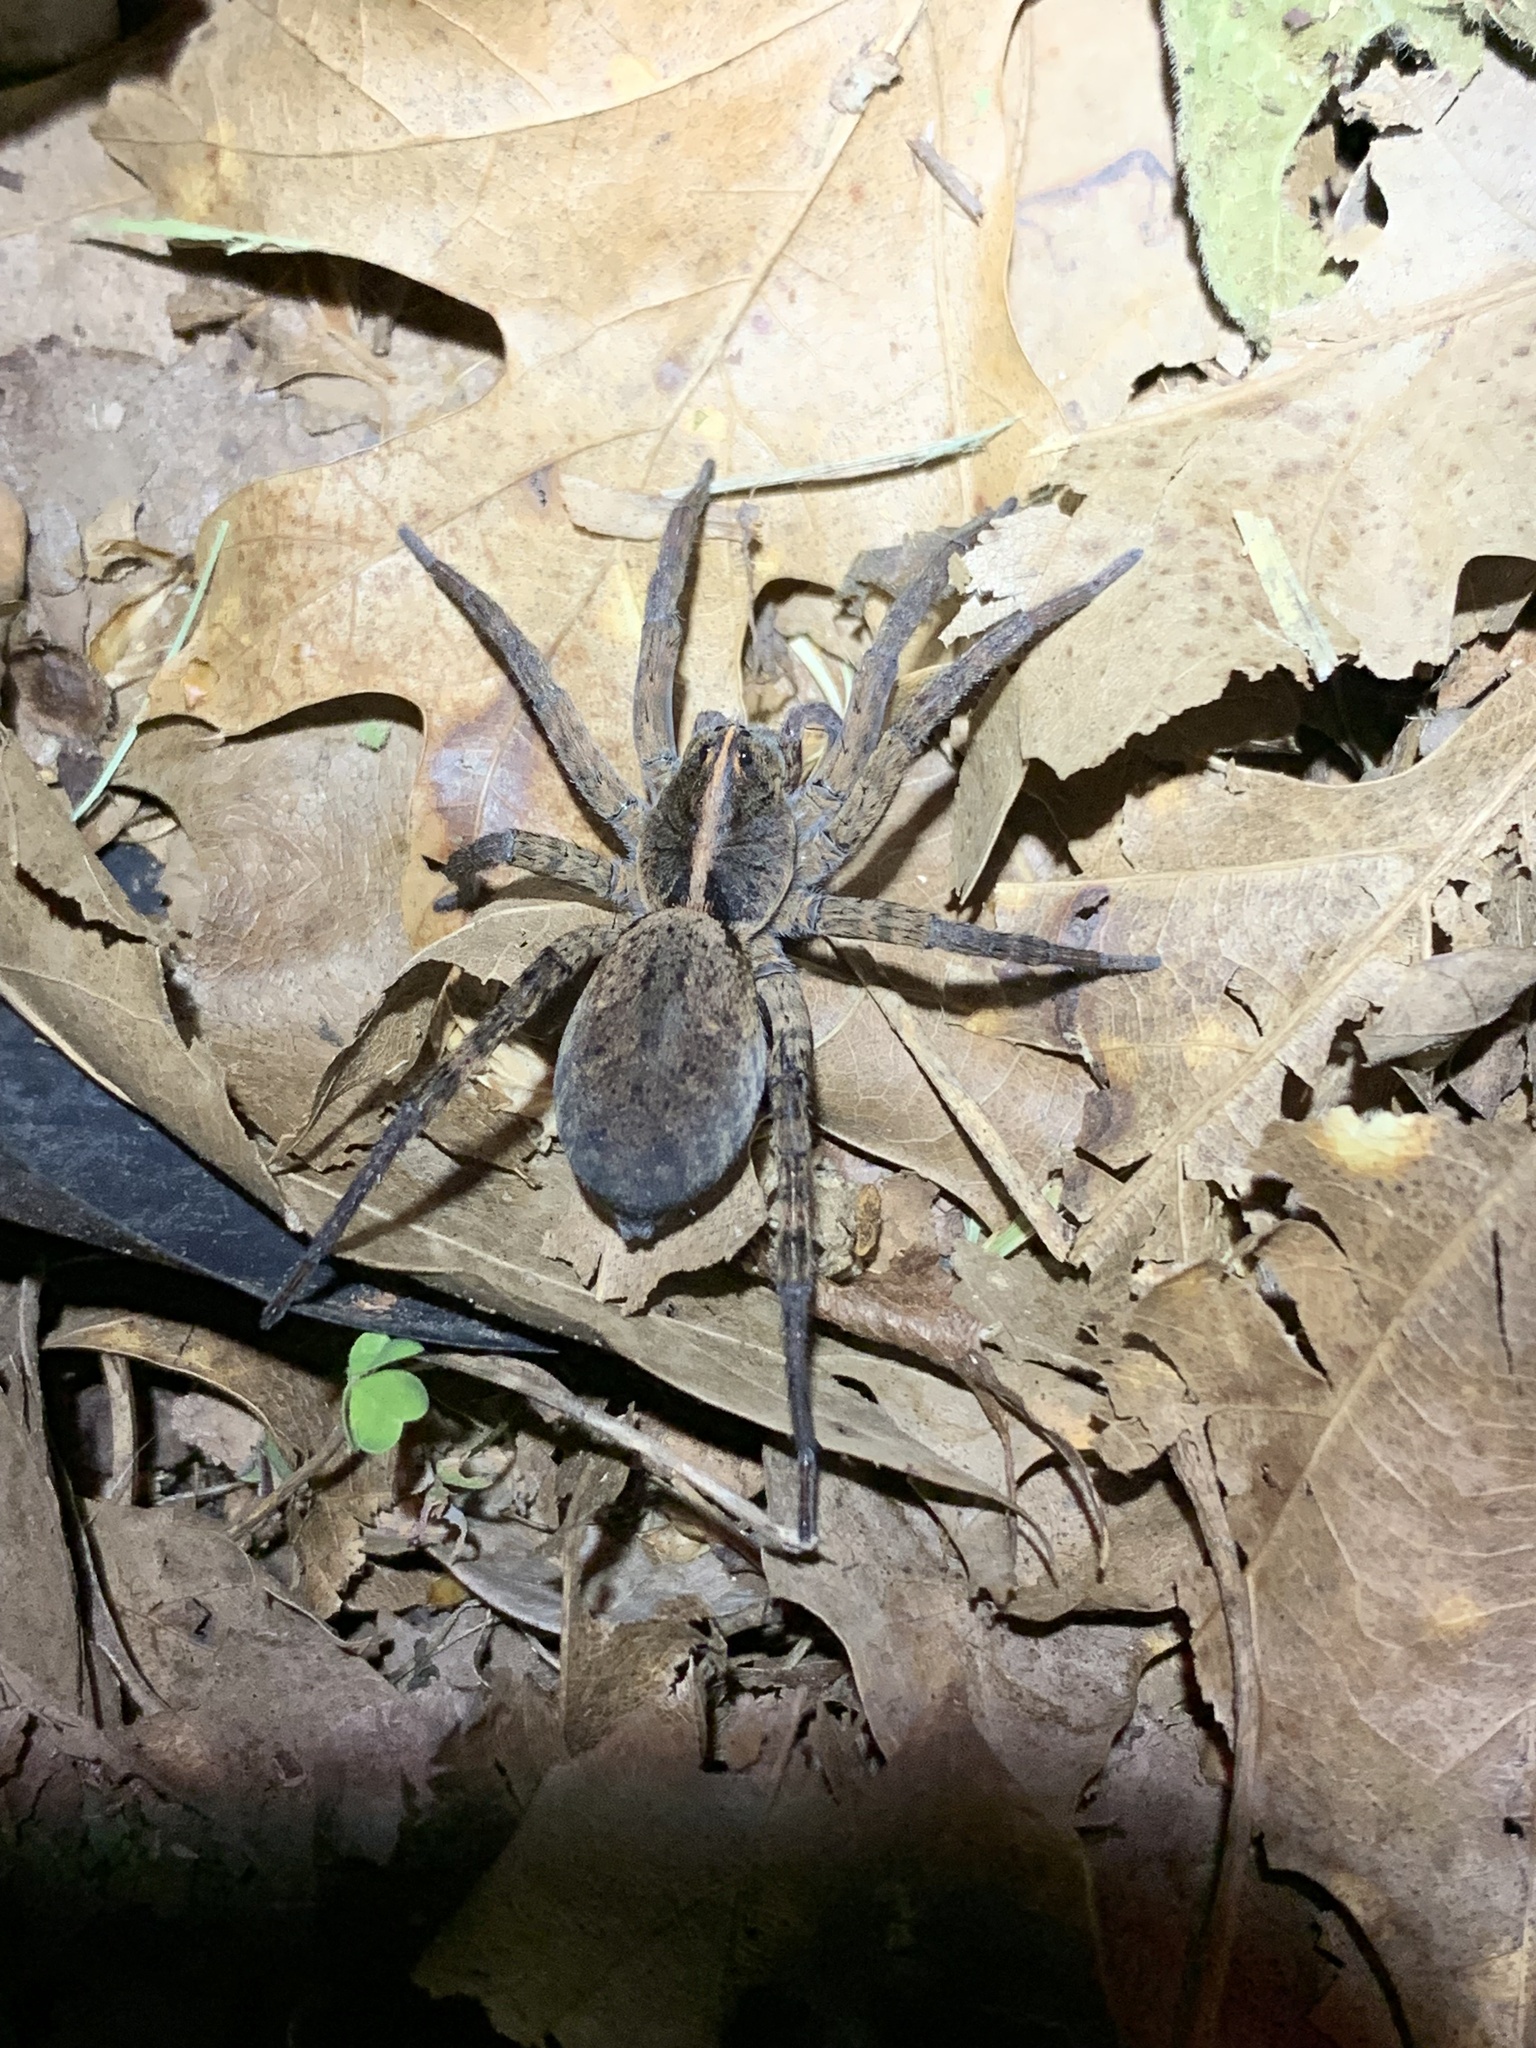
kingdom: Animalia
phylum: Arthropoda
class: Arachnida
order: Araneae
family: Lycosidae
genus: Tigrosa
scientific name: Tigrosa georgicola
